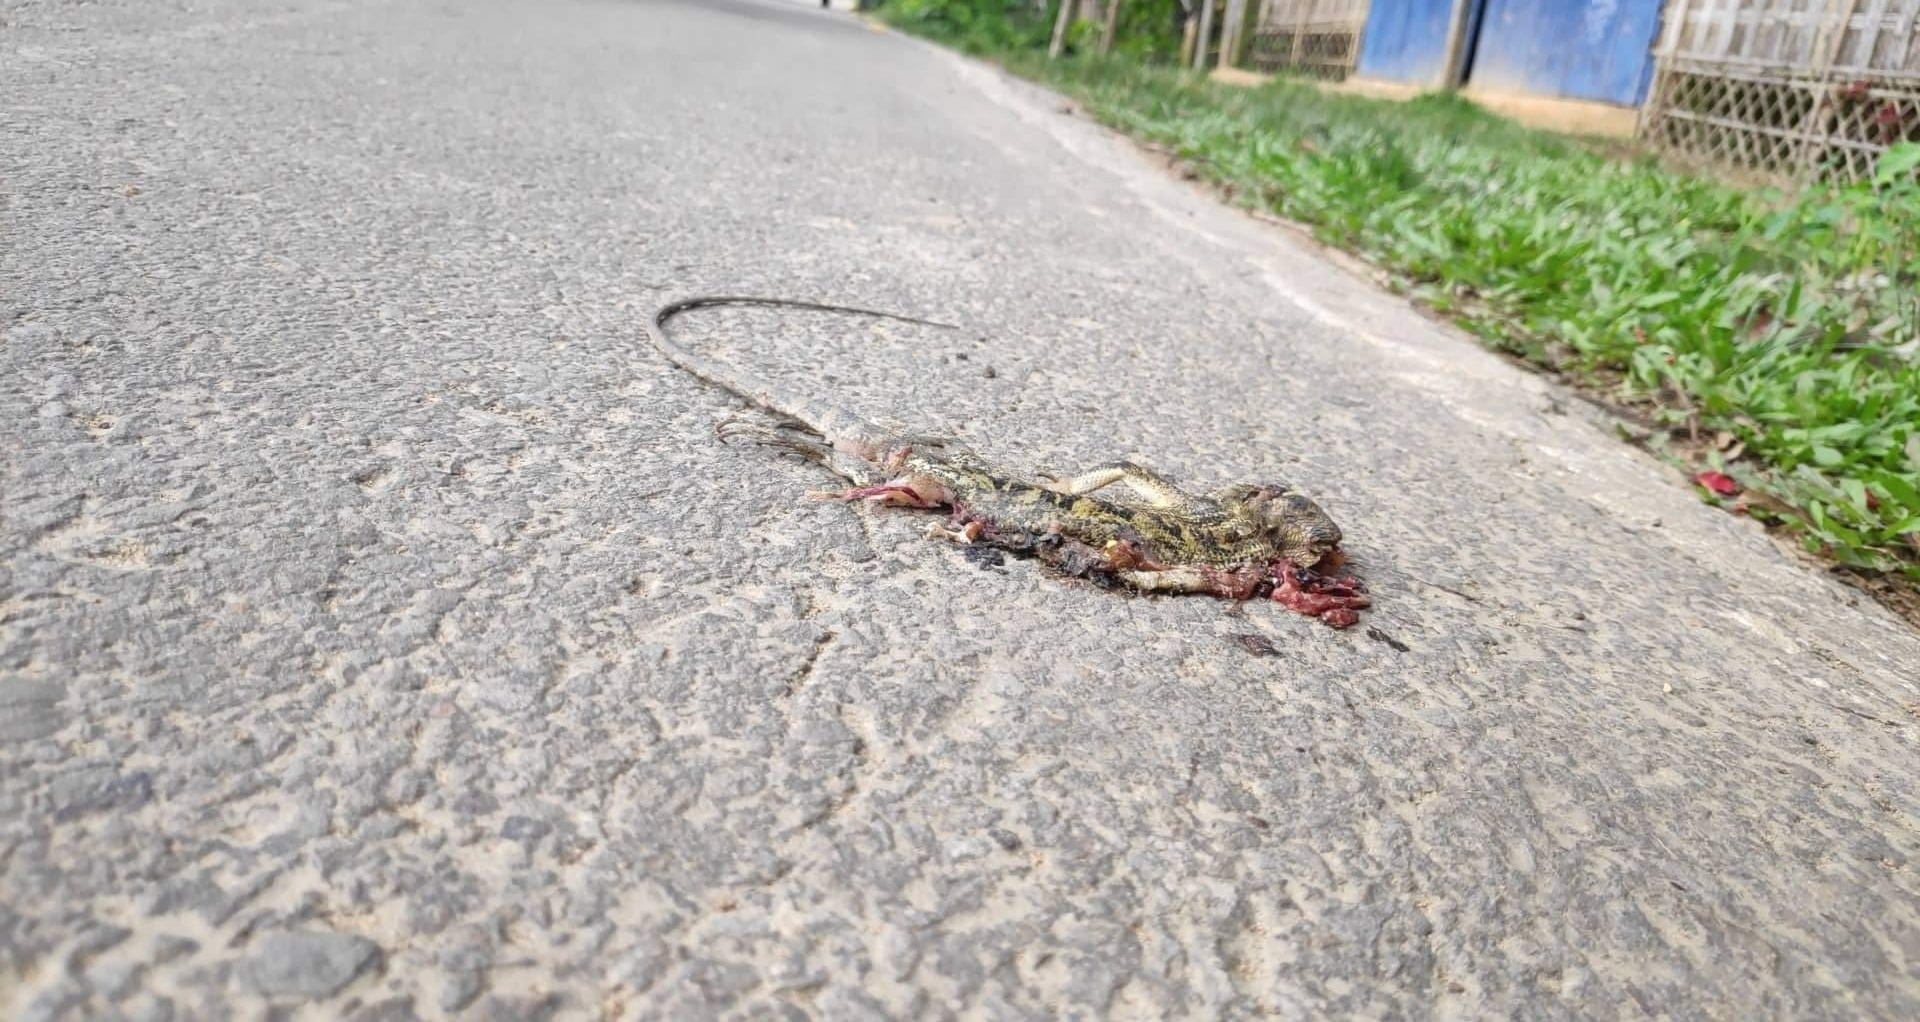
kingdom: Animalia
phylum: Chordata
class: Squamata
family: Agamidae
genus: Calotes
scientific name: Calotes versicolor
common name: Oriental garden lizard
